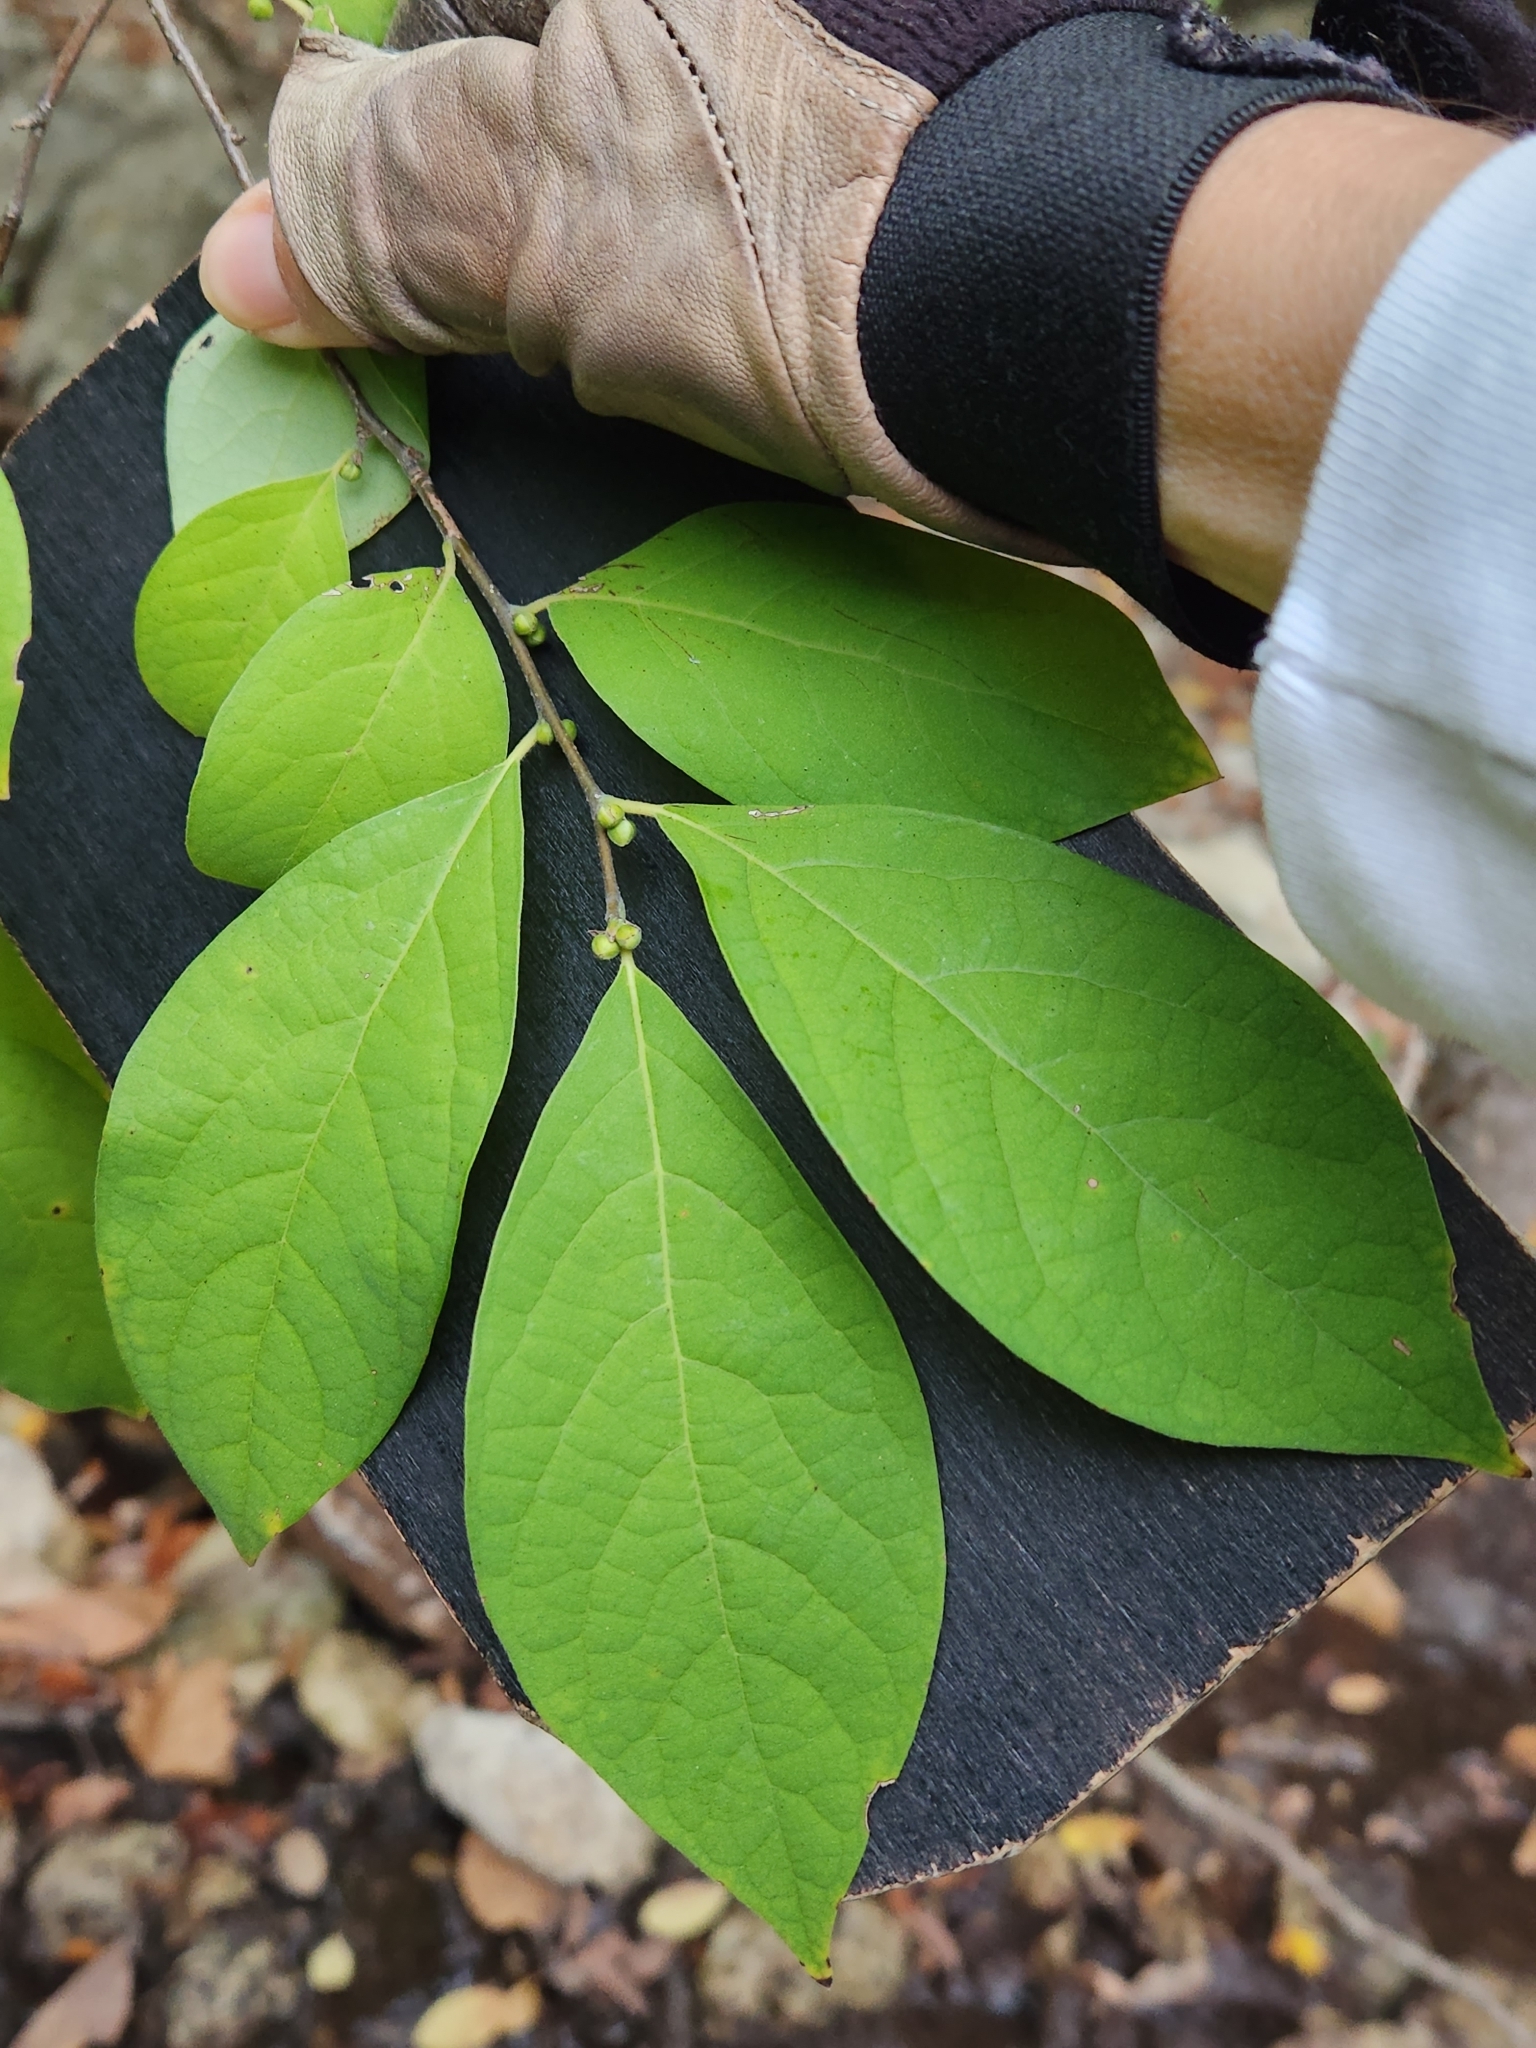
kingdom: Plantae
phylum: Tracheophyta
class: Magnoliopsida
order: Laurales
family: Lauraceae
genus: Lindera
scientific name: Lindera benzoin
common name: Spicebush
